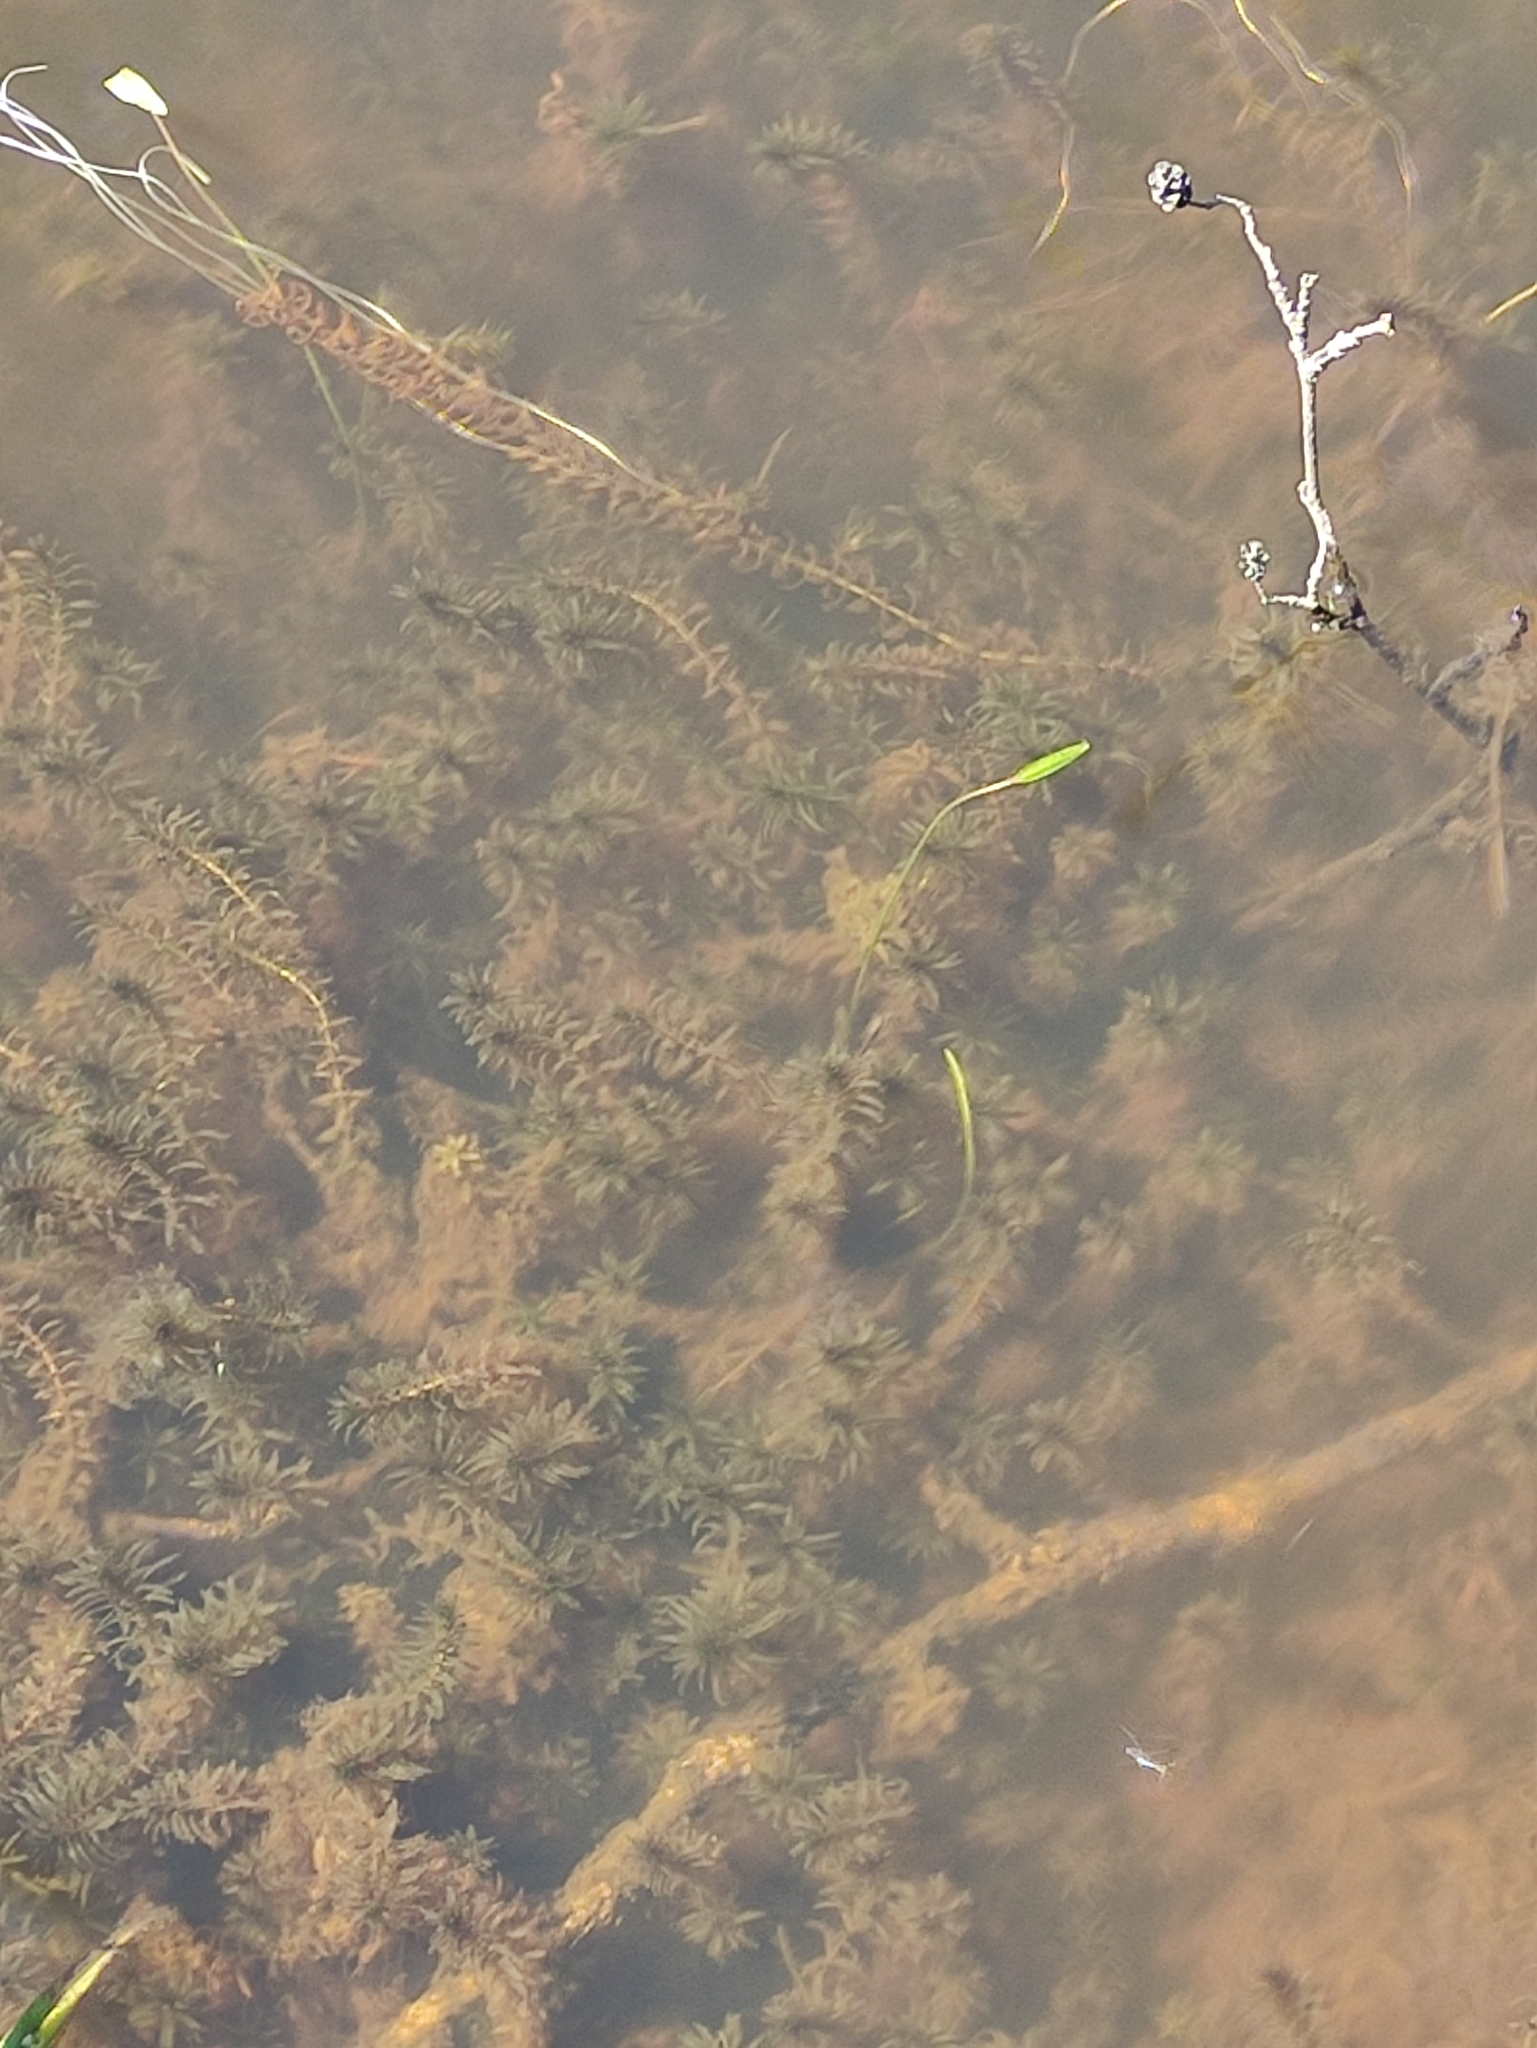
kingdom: Plantae
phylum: Tracheophyta
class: Liliopsida
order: Alismatales
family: Hydrocharitaceae
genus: Elodea
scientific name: Elodea canadensis
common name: Canadian waterweed
